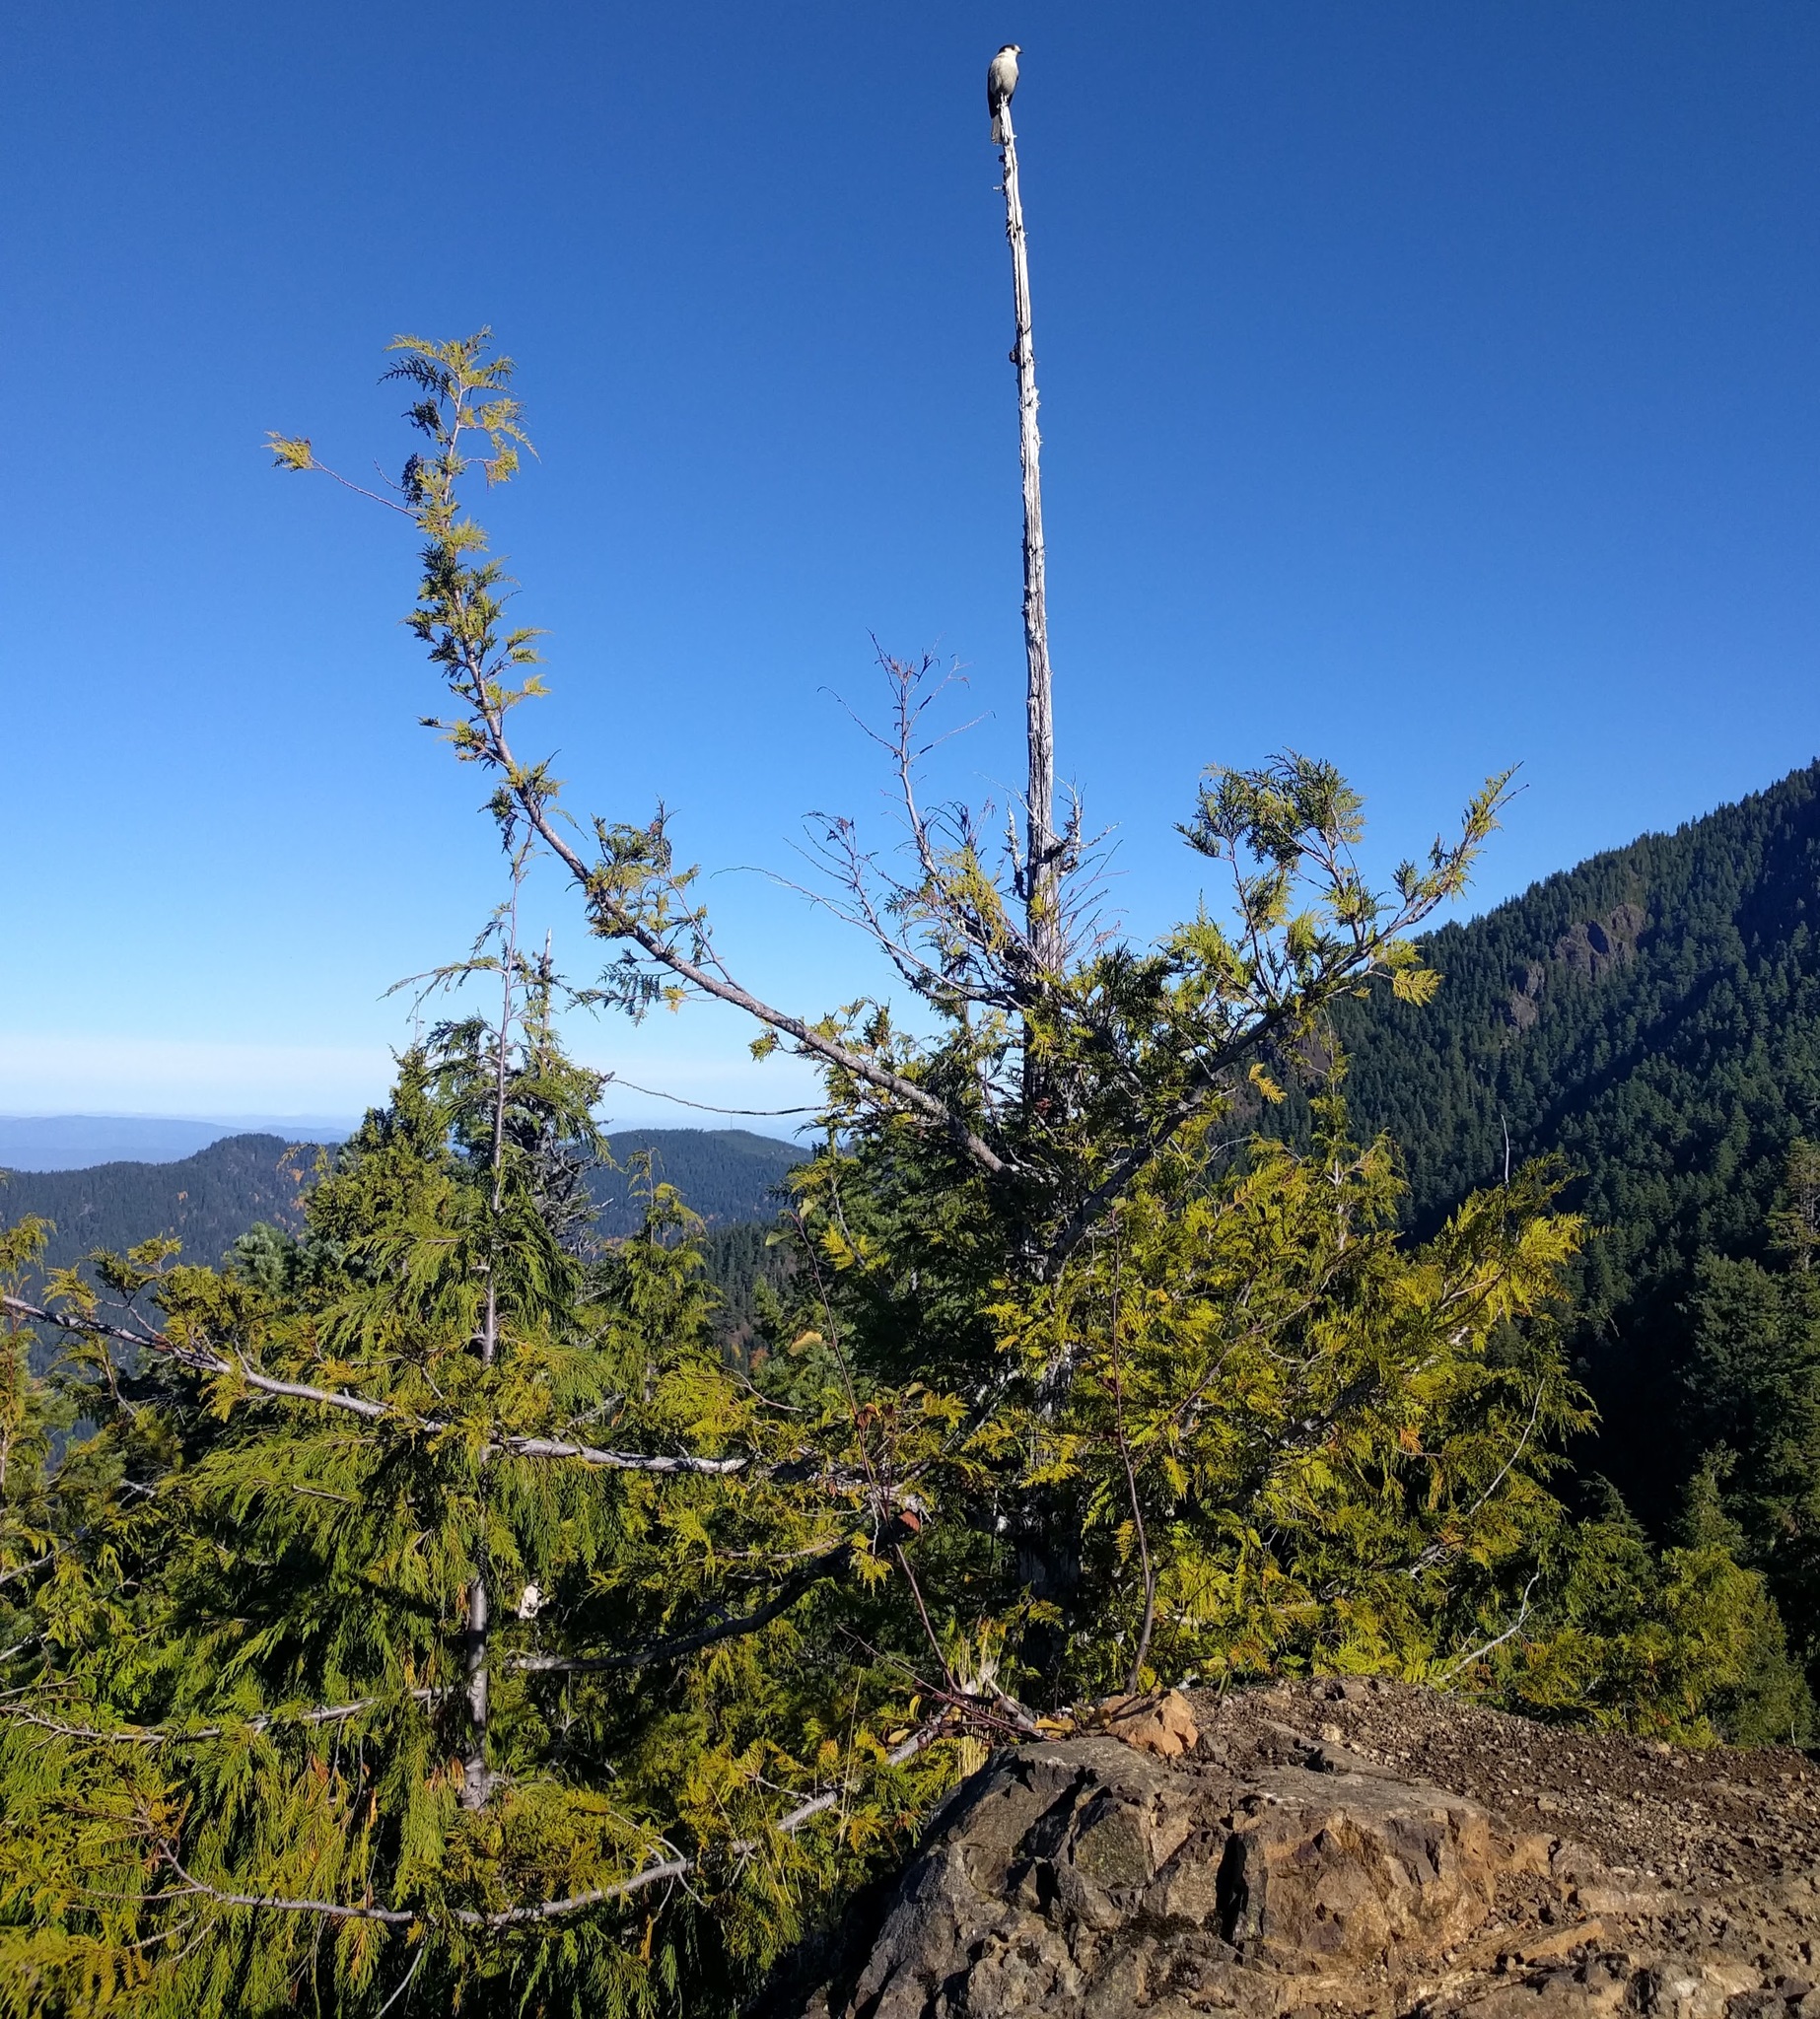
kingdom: Animalia
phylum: Chordata
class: Aves
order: Passeriformes
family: Corvidae
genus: Perisoreus
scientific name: Perisoreus canadensis
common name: Gray jay
